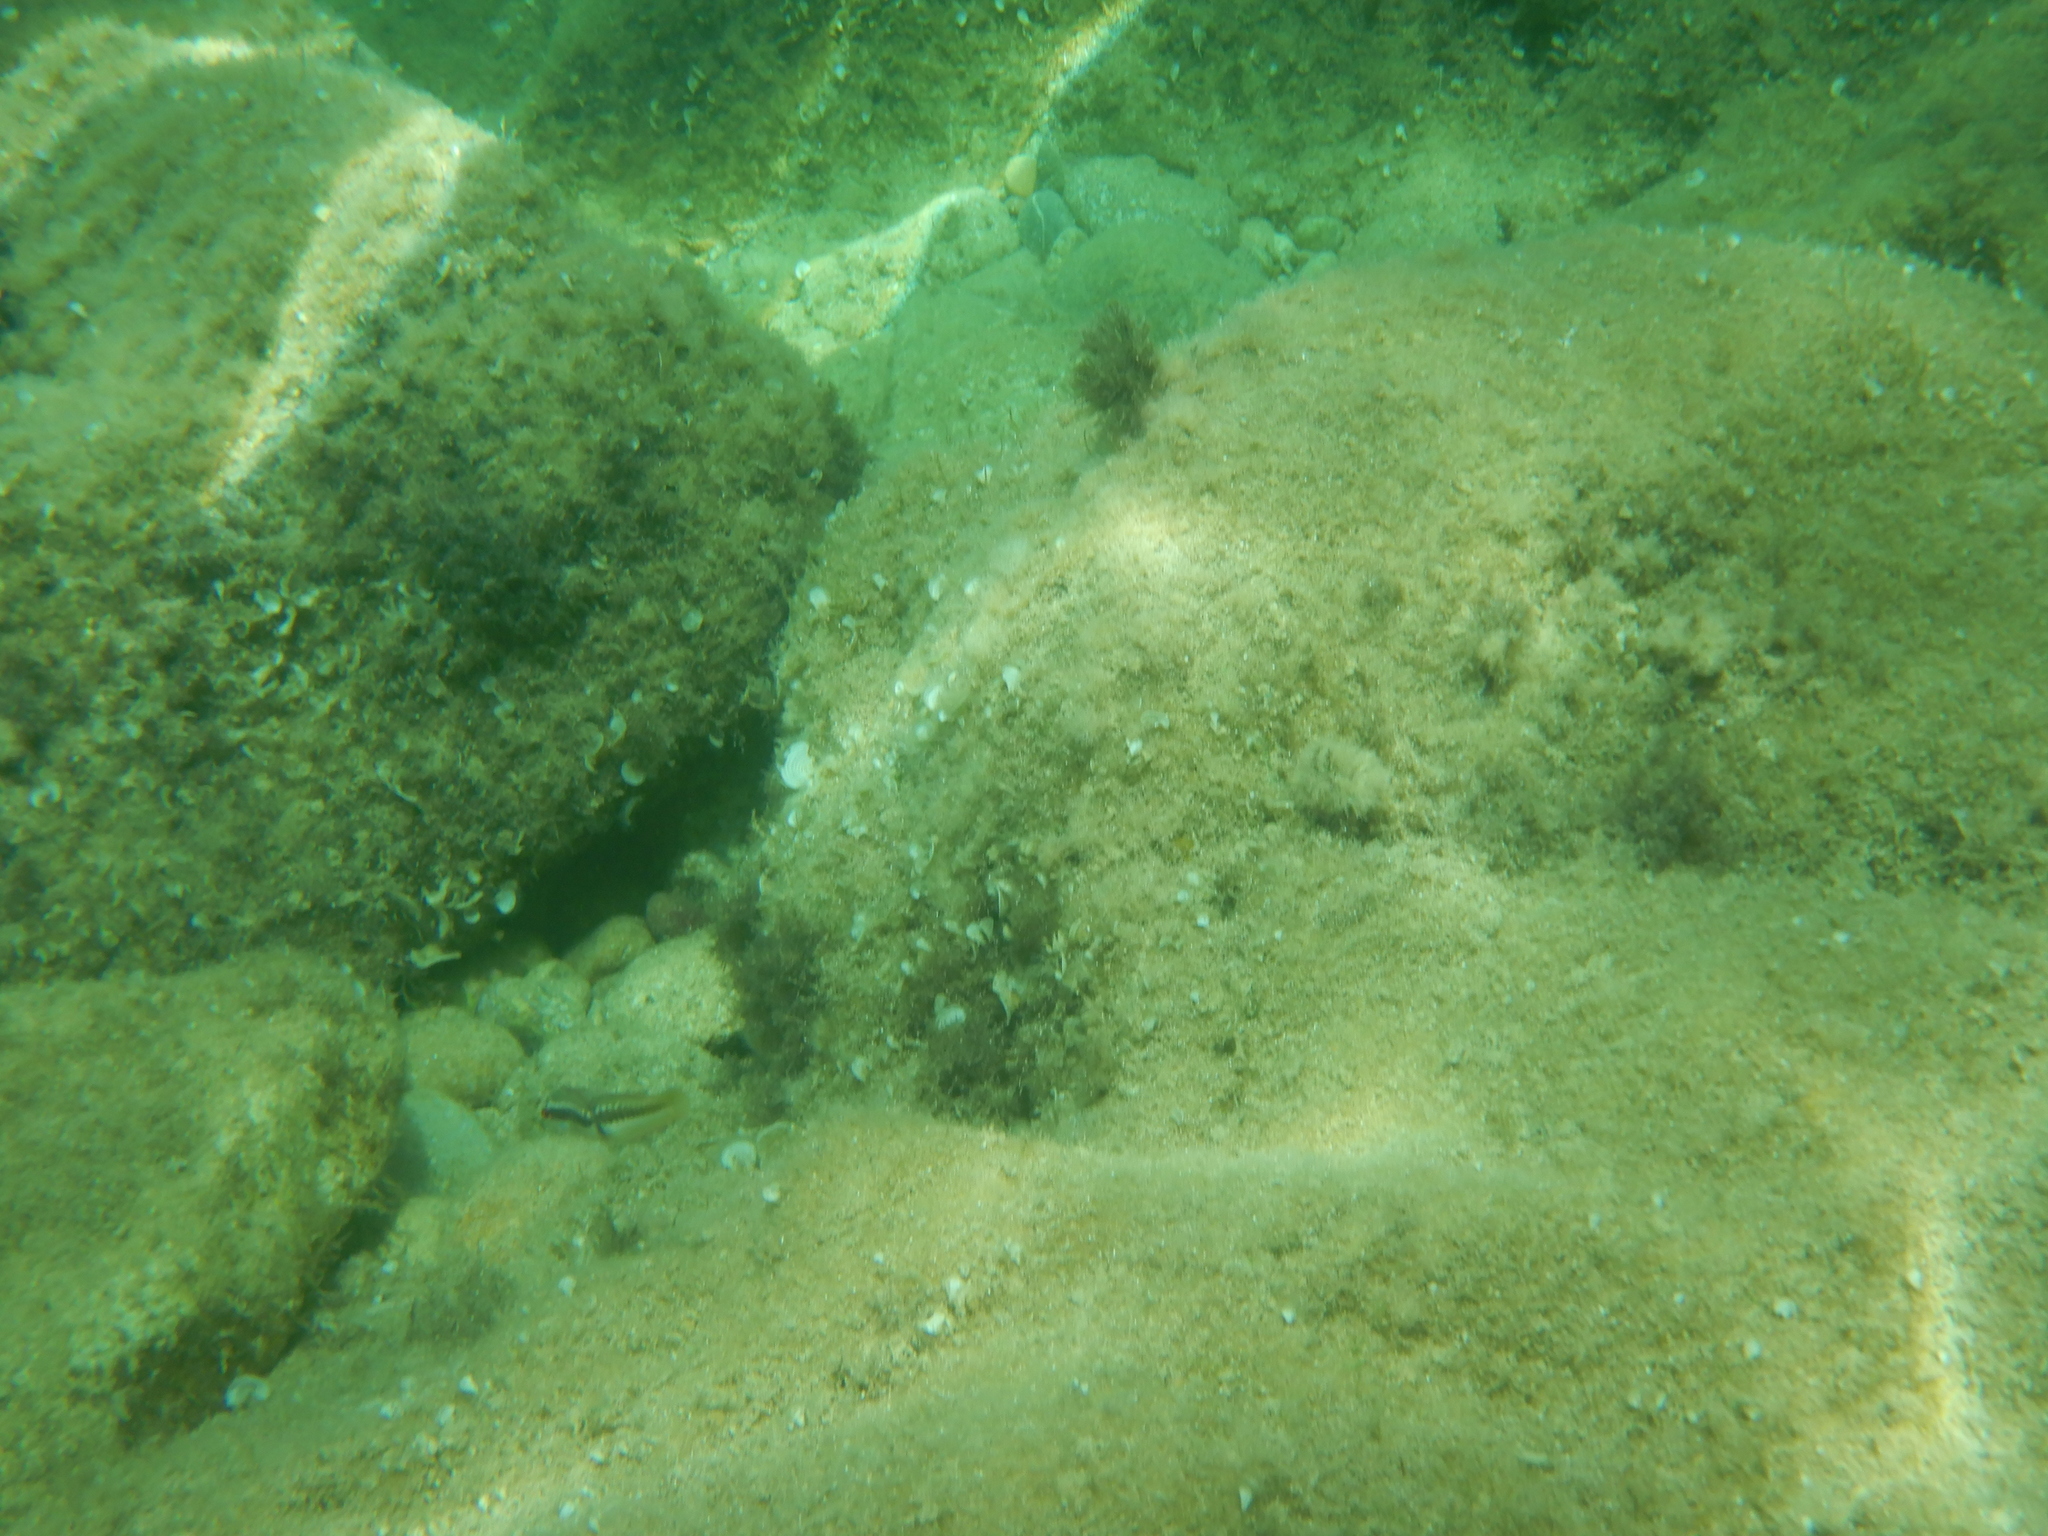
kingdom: Animalia
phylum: Chordata
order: Perciformes
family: Labridae
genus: Coris
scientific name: Coris julis
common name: Rainbow wrasse
